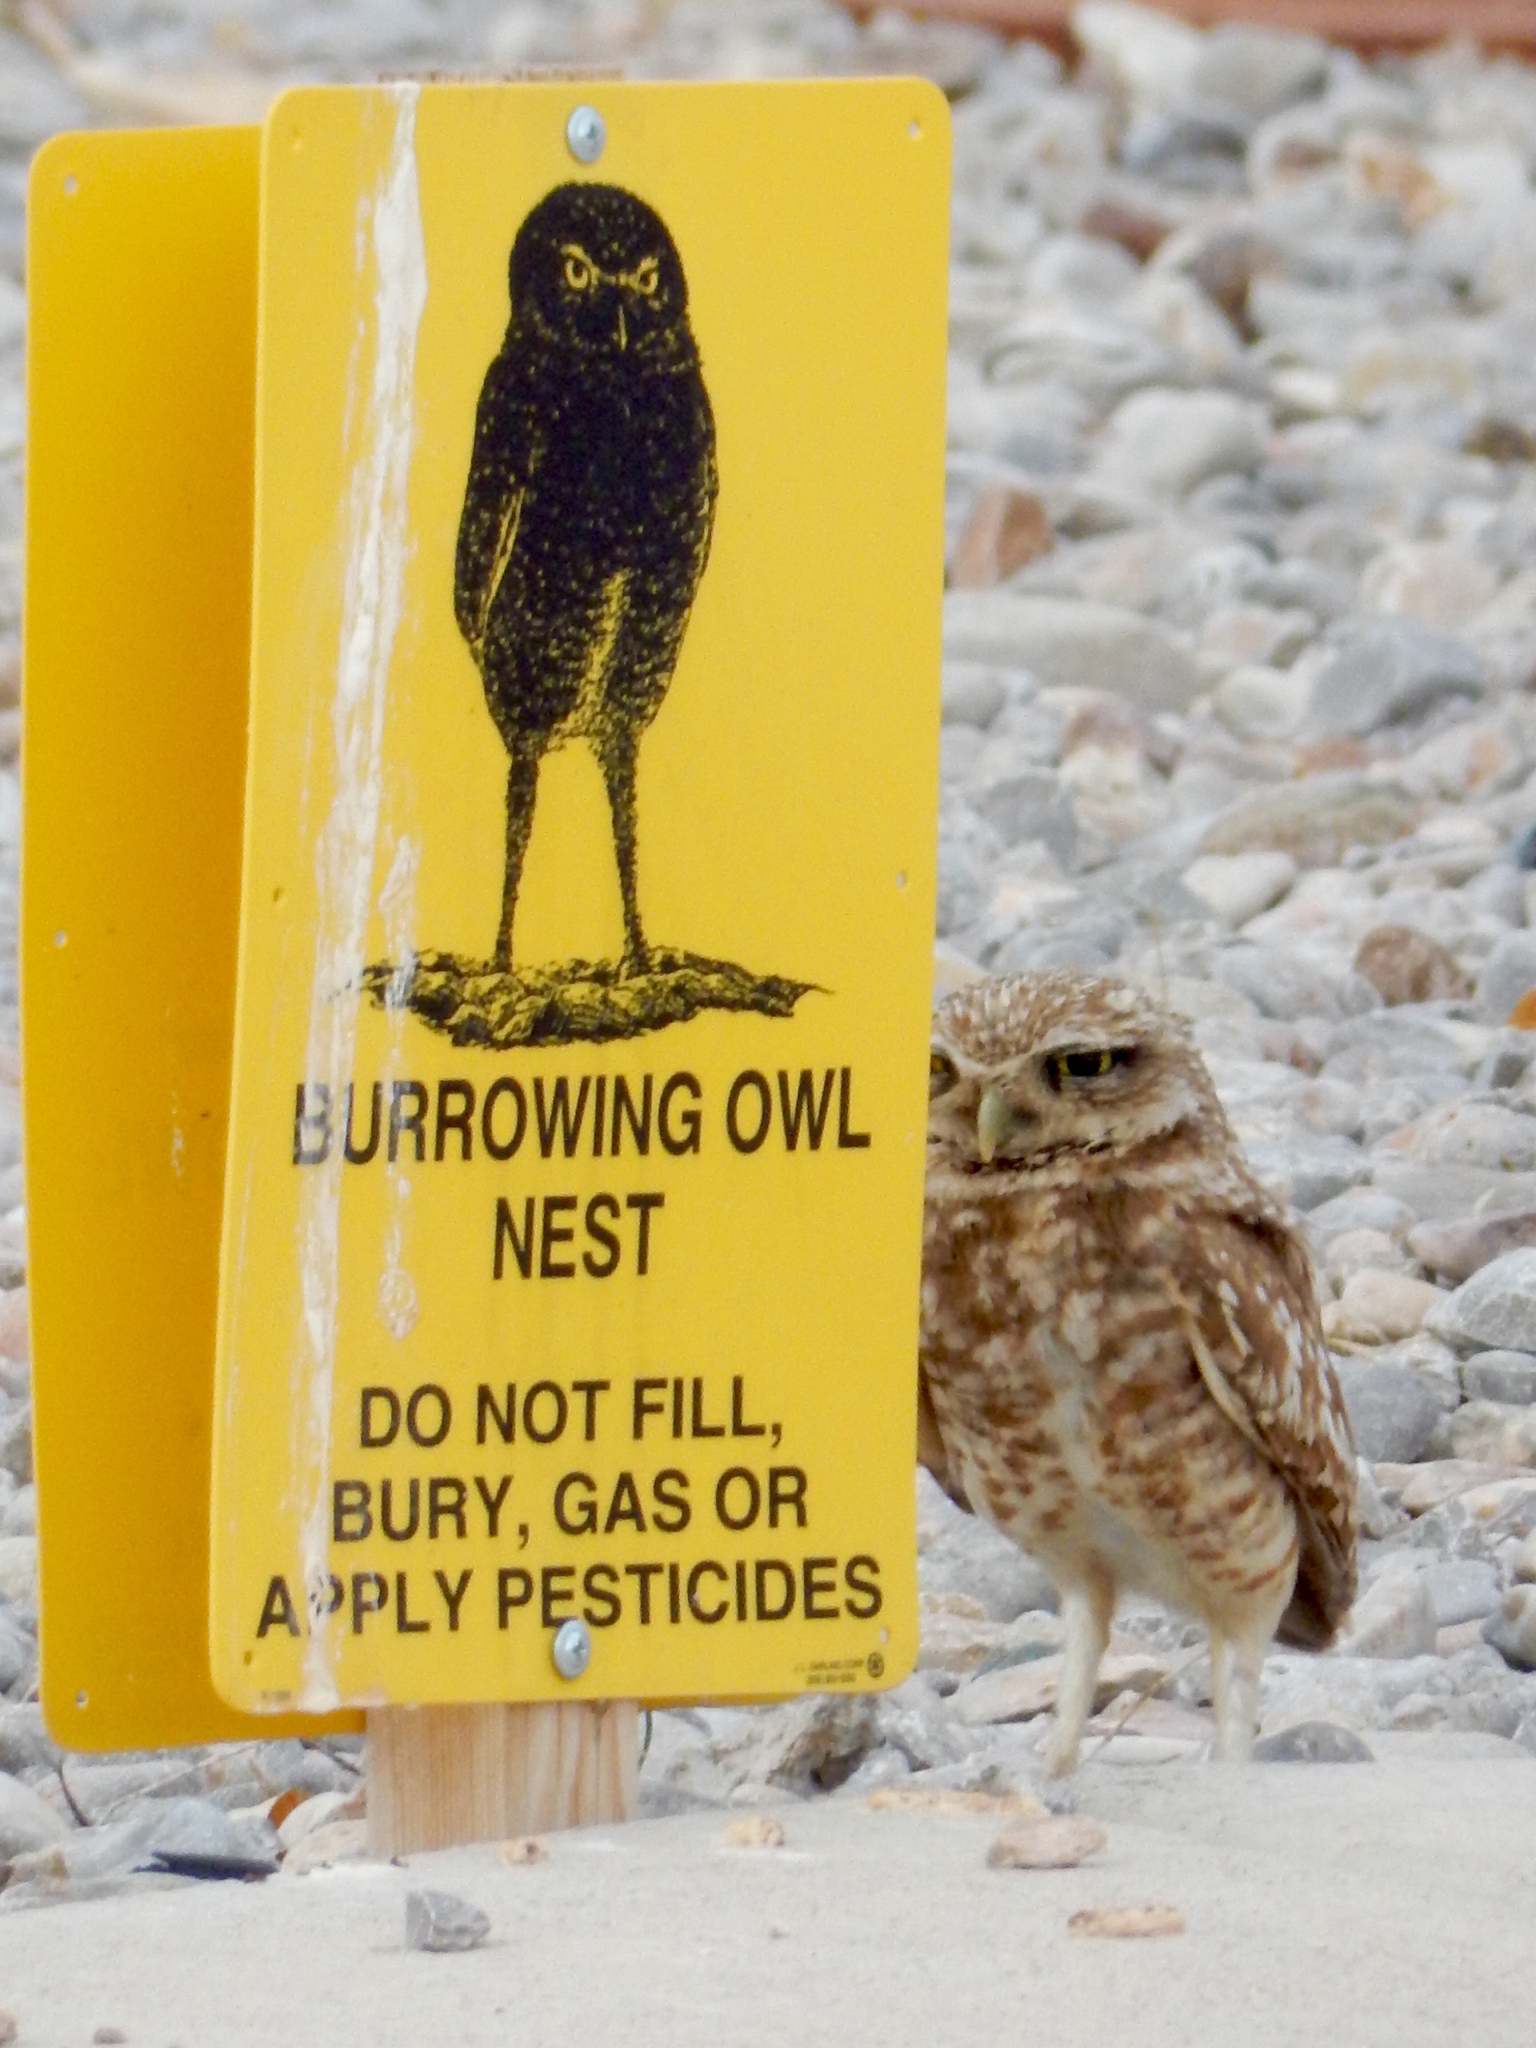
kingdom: Animalia
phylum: Chordata
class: Aves
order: Strigiformes
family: Strigidae
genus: Athene
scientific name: Athene cunicularia
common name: Burrowing owl
